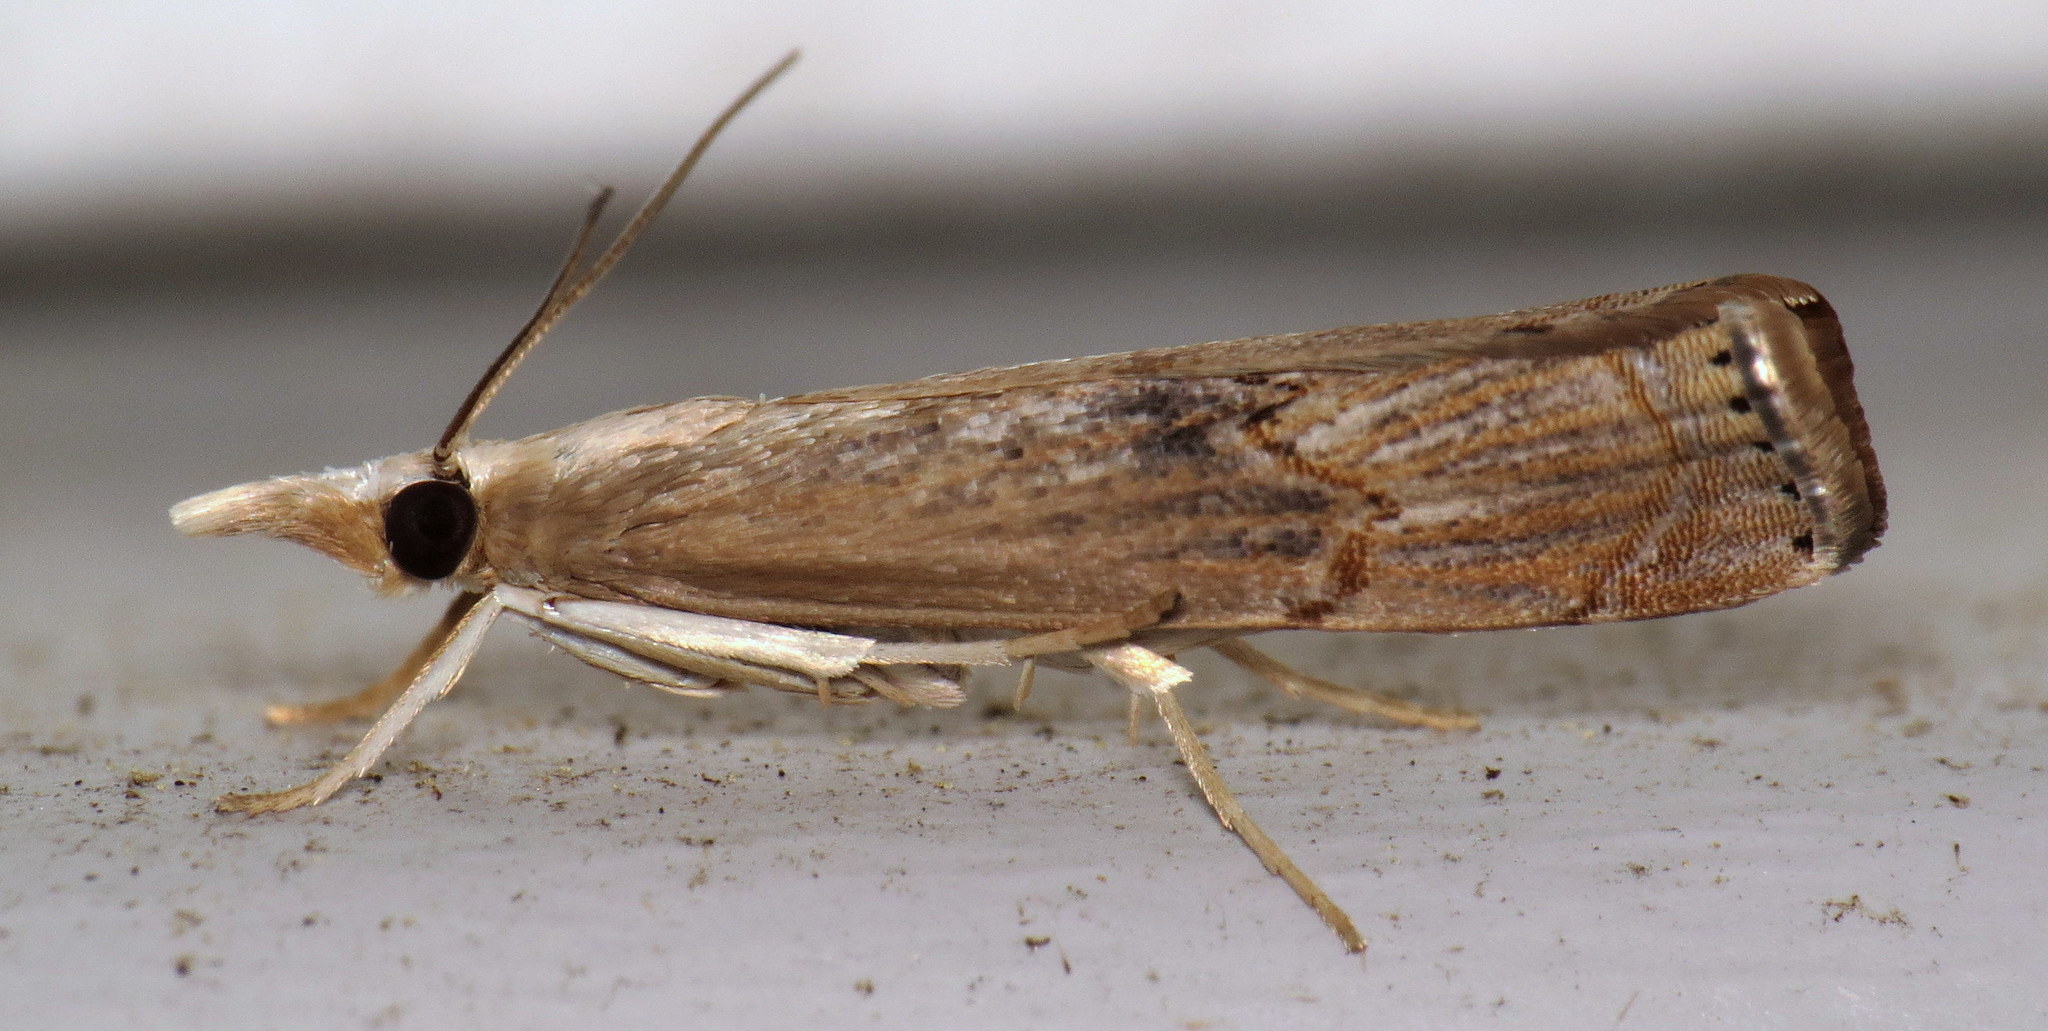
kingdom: Animalia
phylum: Arthropoda
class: Insecta
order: Lepidoptera
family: Crambidae
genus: Parapediasia
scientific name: Parapediasia teterellus
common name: Bluegrass webworm moth
